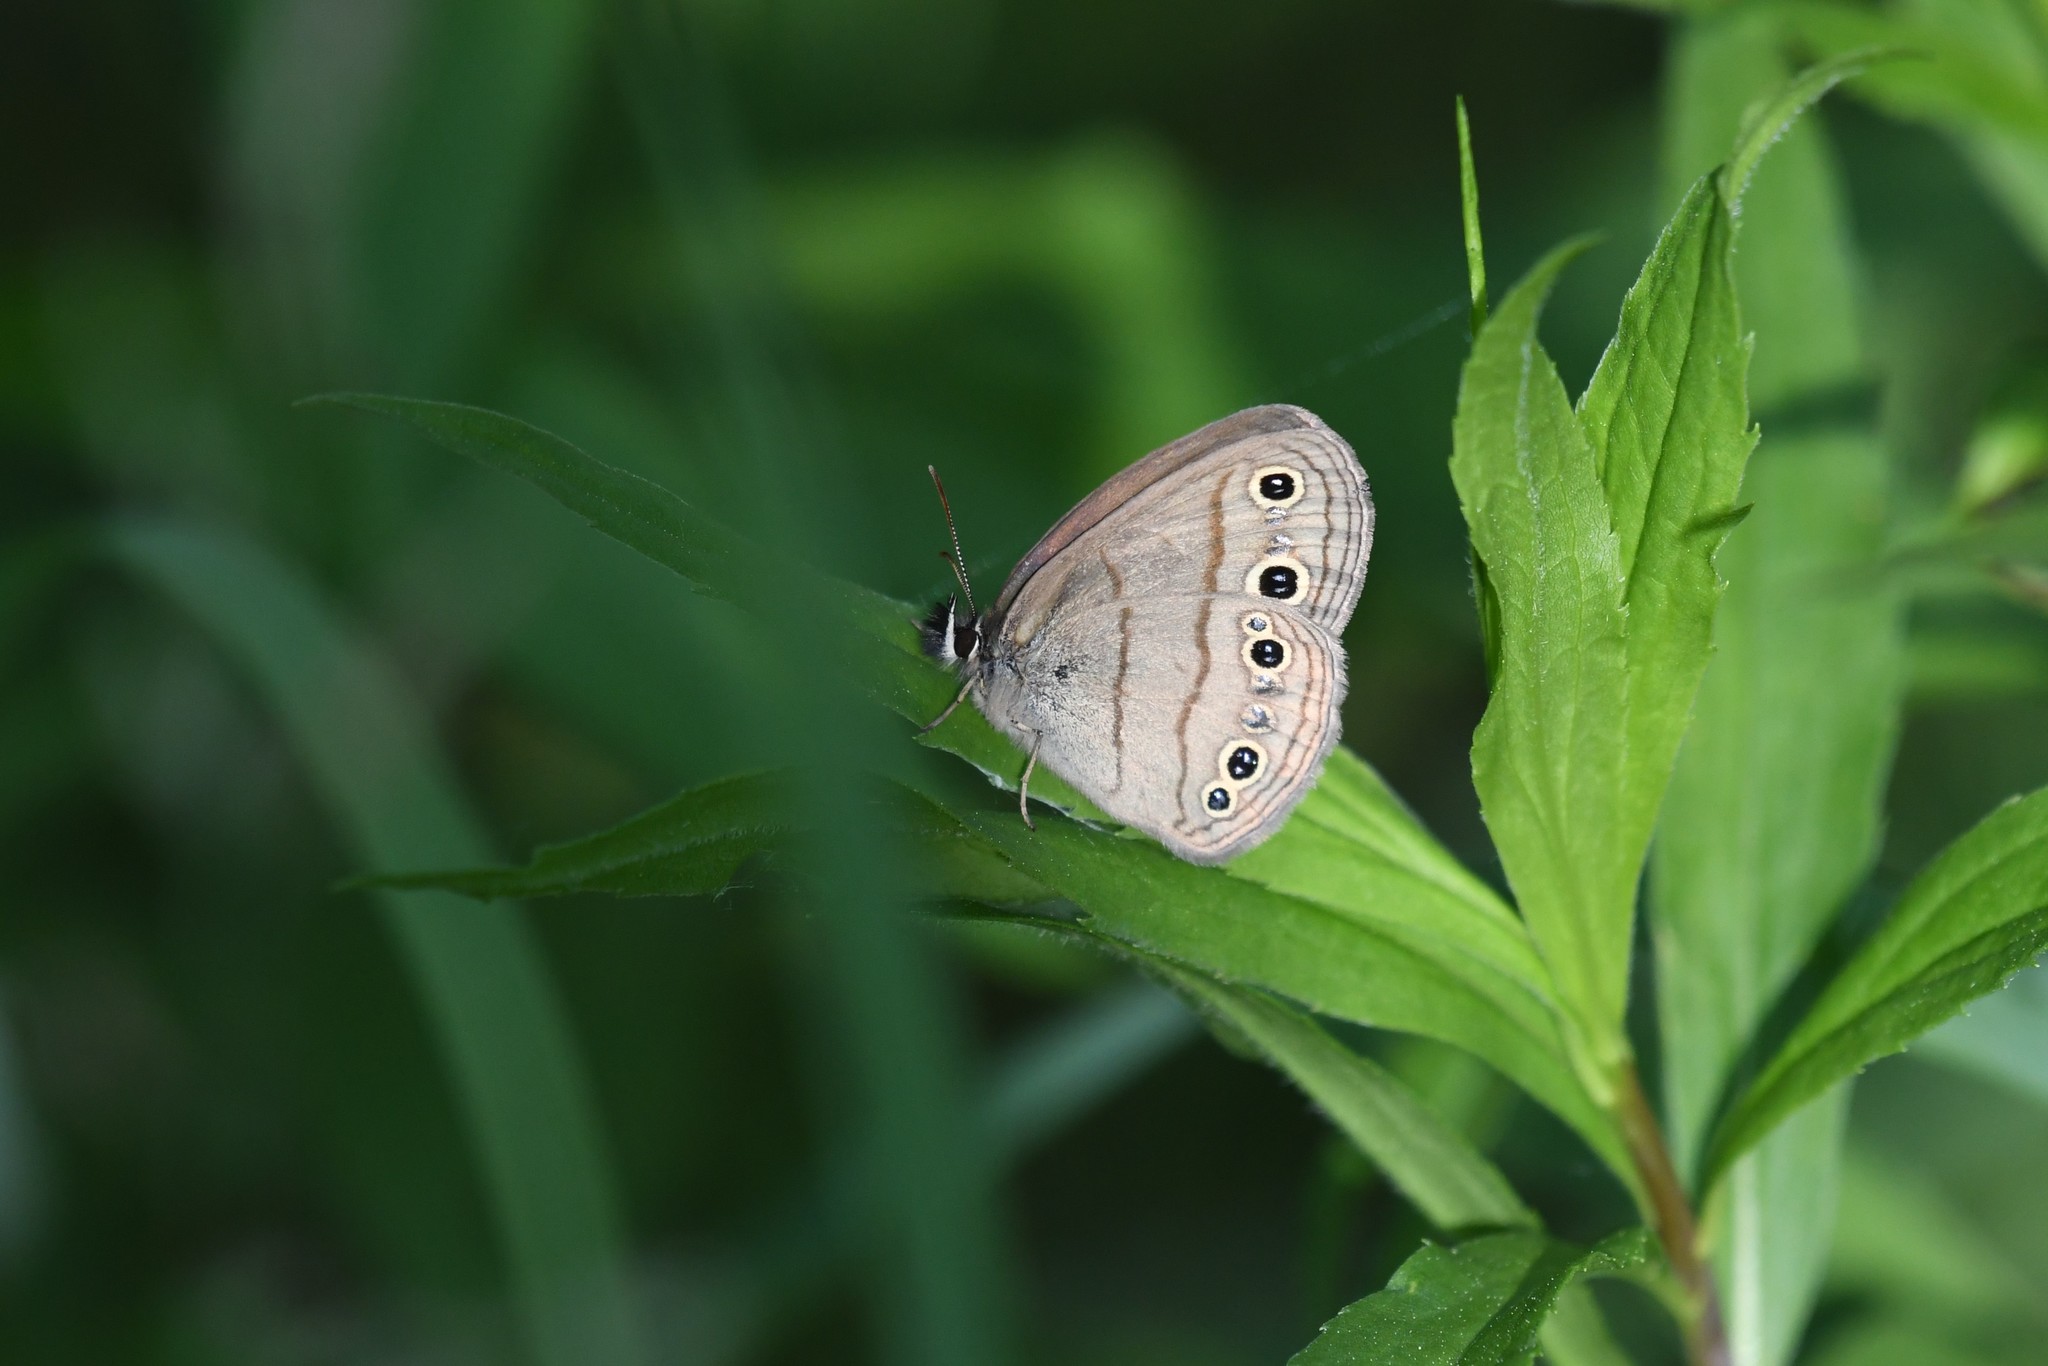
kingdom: Animalia
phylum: Arthropoda
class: Insecta
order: Lepidoptera
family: Nymphalidae
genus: Euptychia
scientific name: Euptychia cymela
